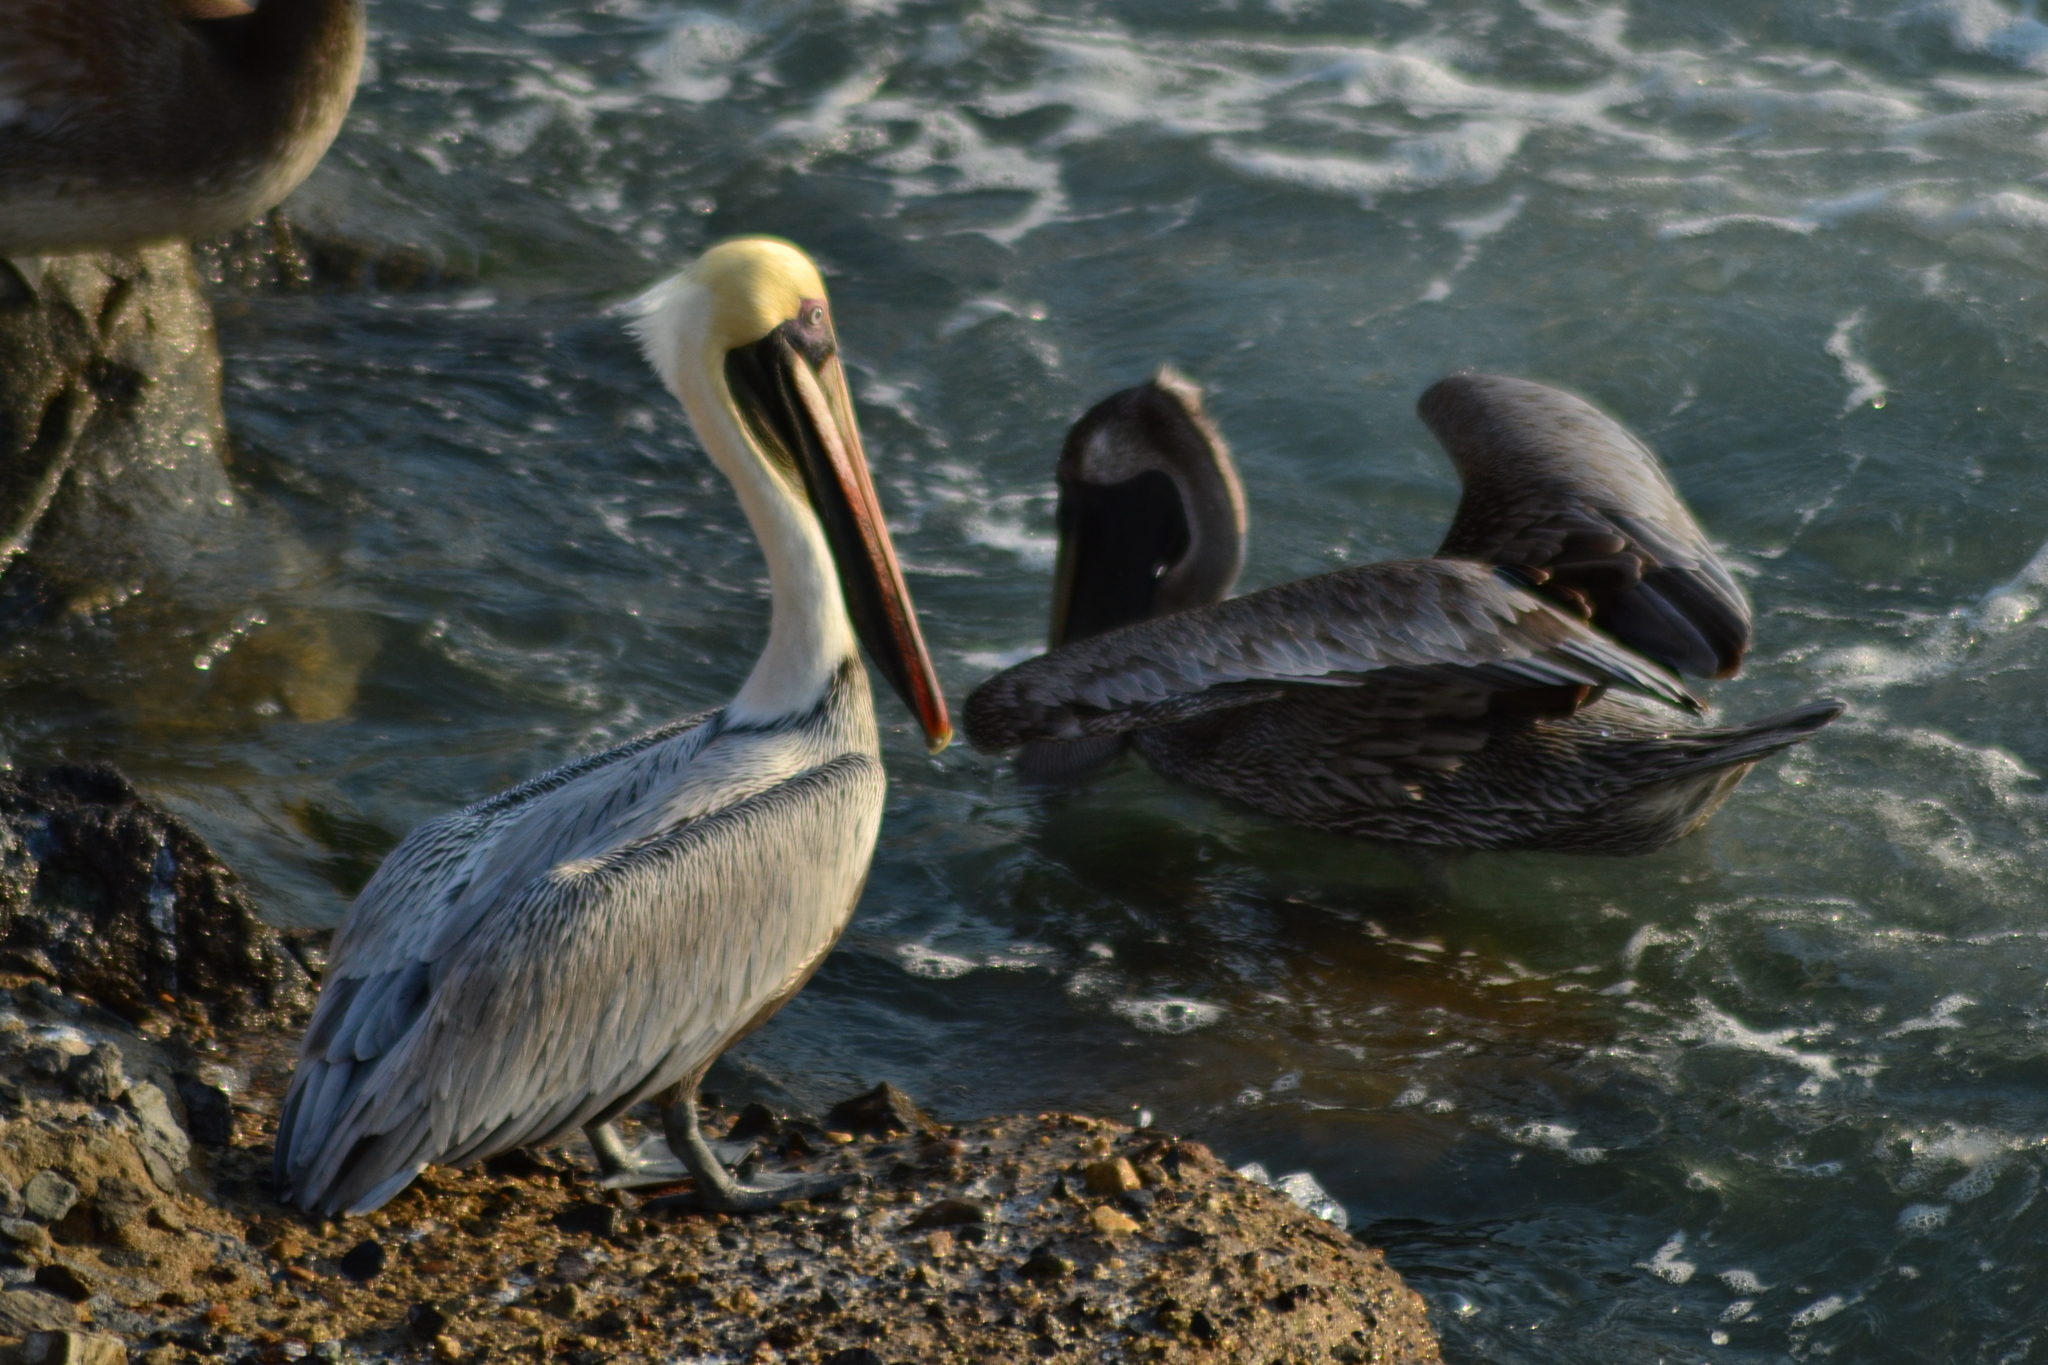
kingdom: Animalia
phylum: Chordata
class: Aves
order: Pelecaniformes
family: Pelecanidae
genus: Pelecanus
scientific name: Pelecanus occidentalis
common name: Brown pelican
